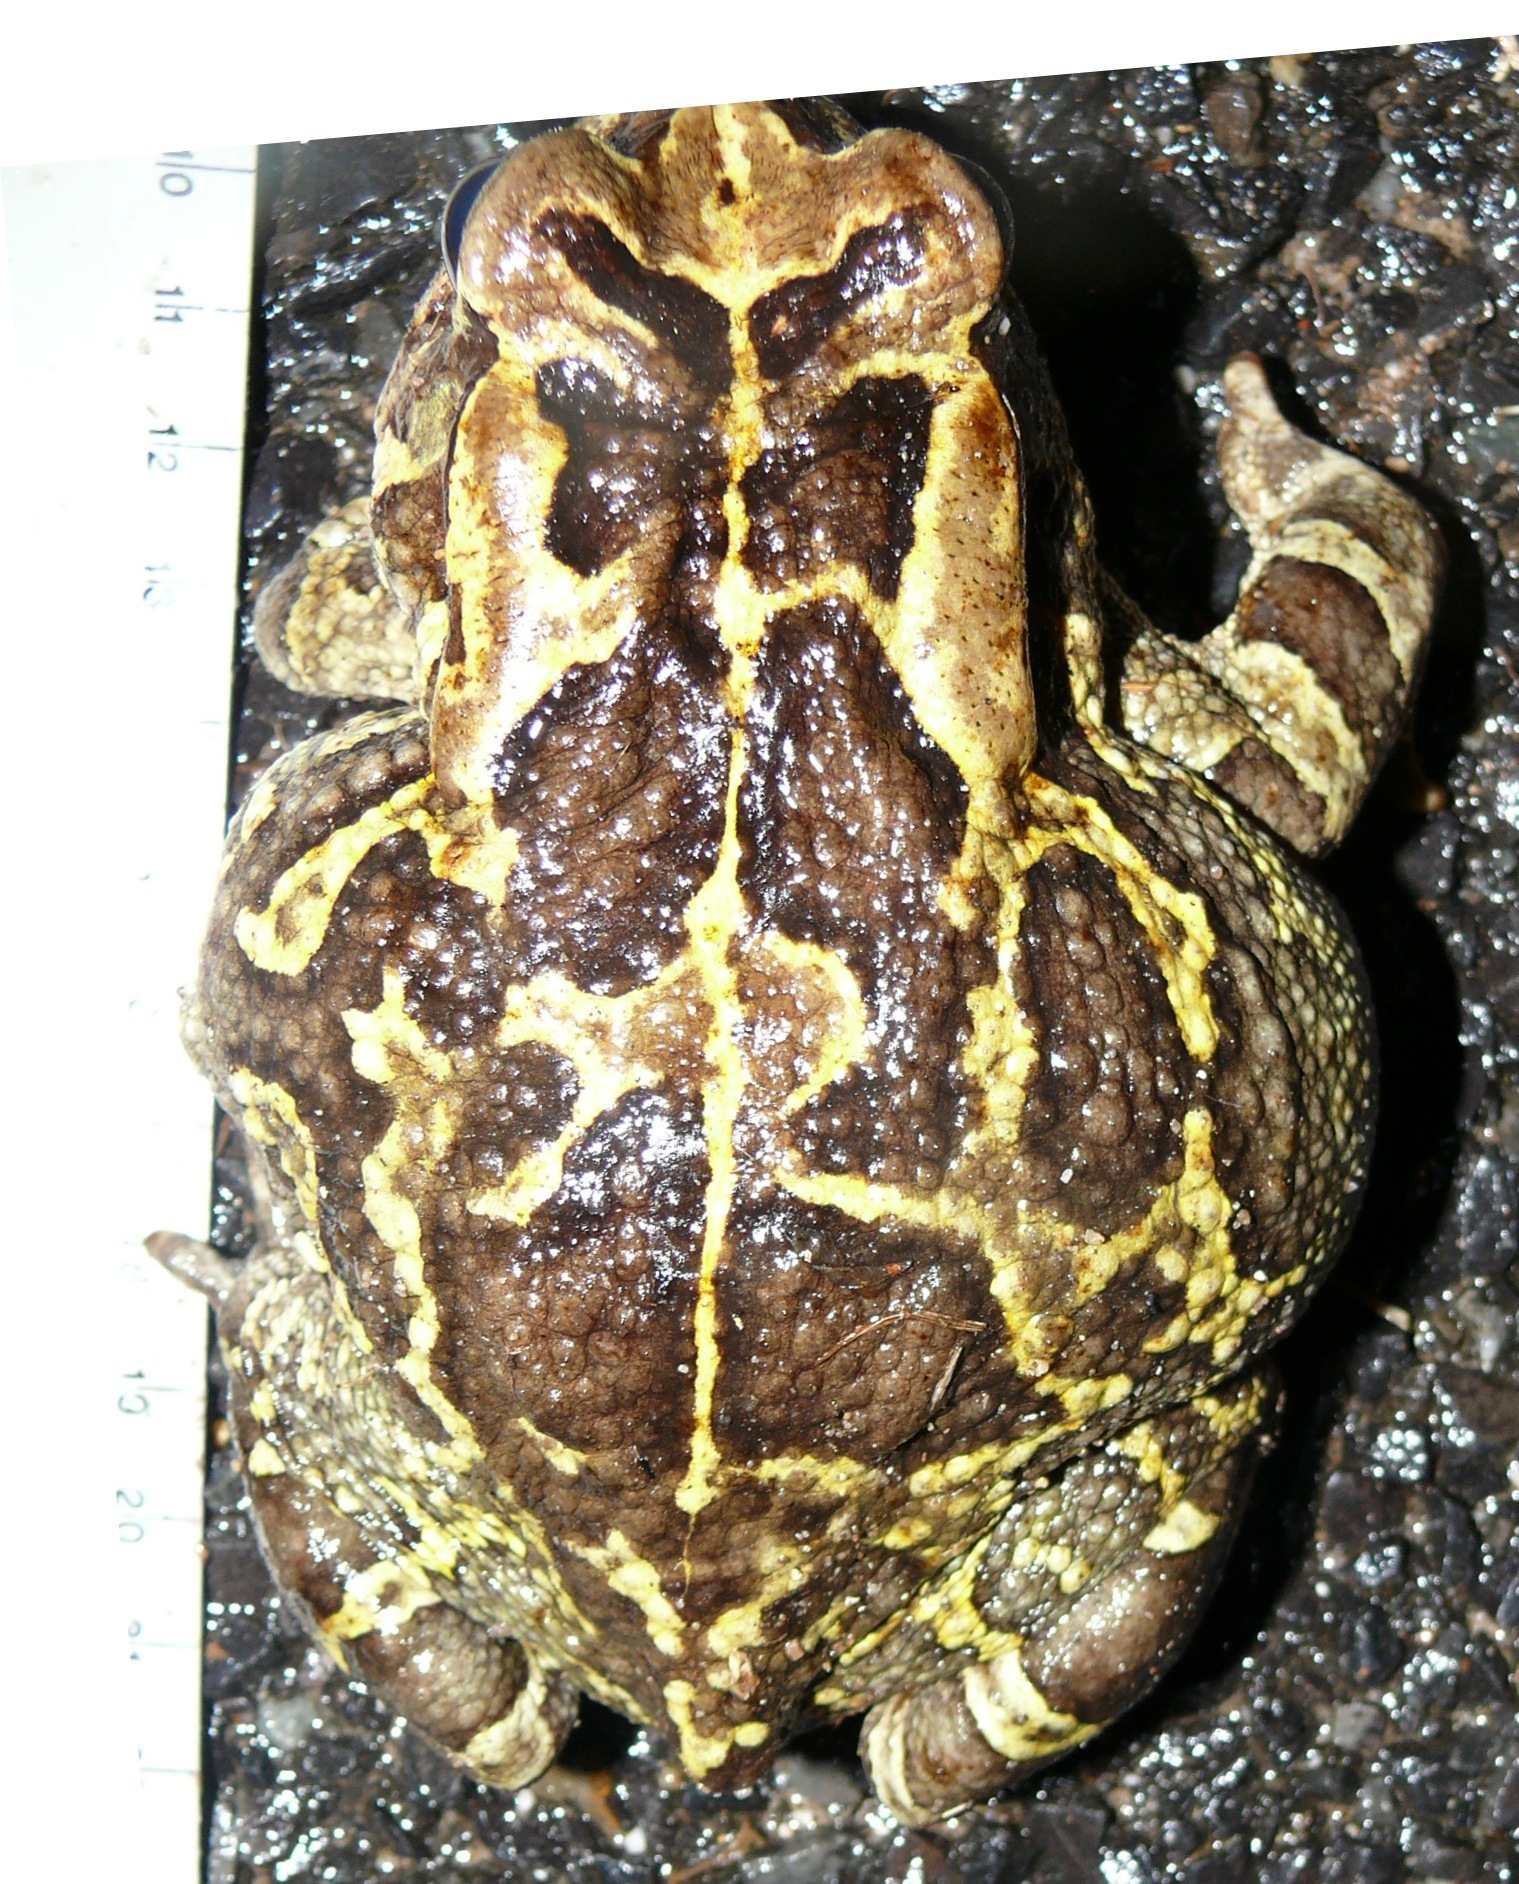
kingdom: Animalia
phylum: Chordata
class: Amphibia
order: Anura
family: Bufonidae
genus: Sclerophrys
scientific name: Sclerophrys pantherina
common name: Panther toad
